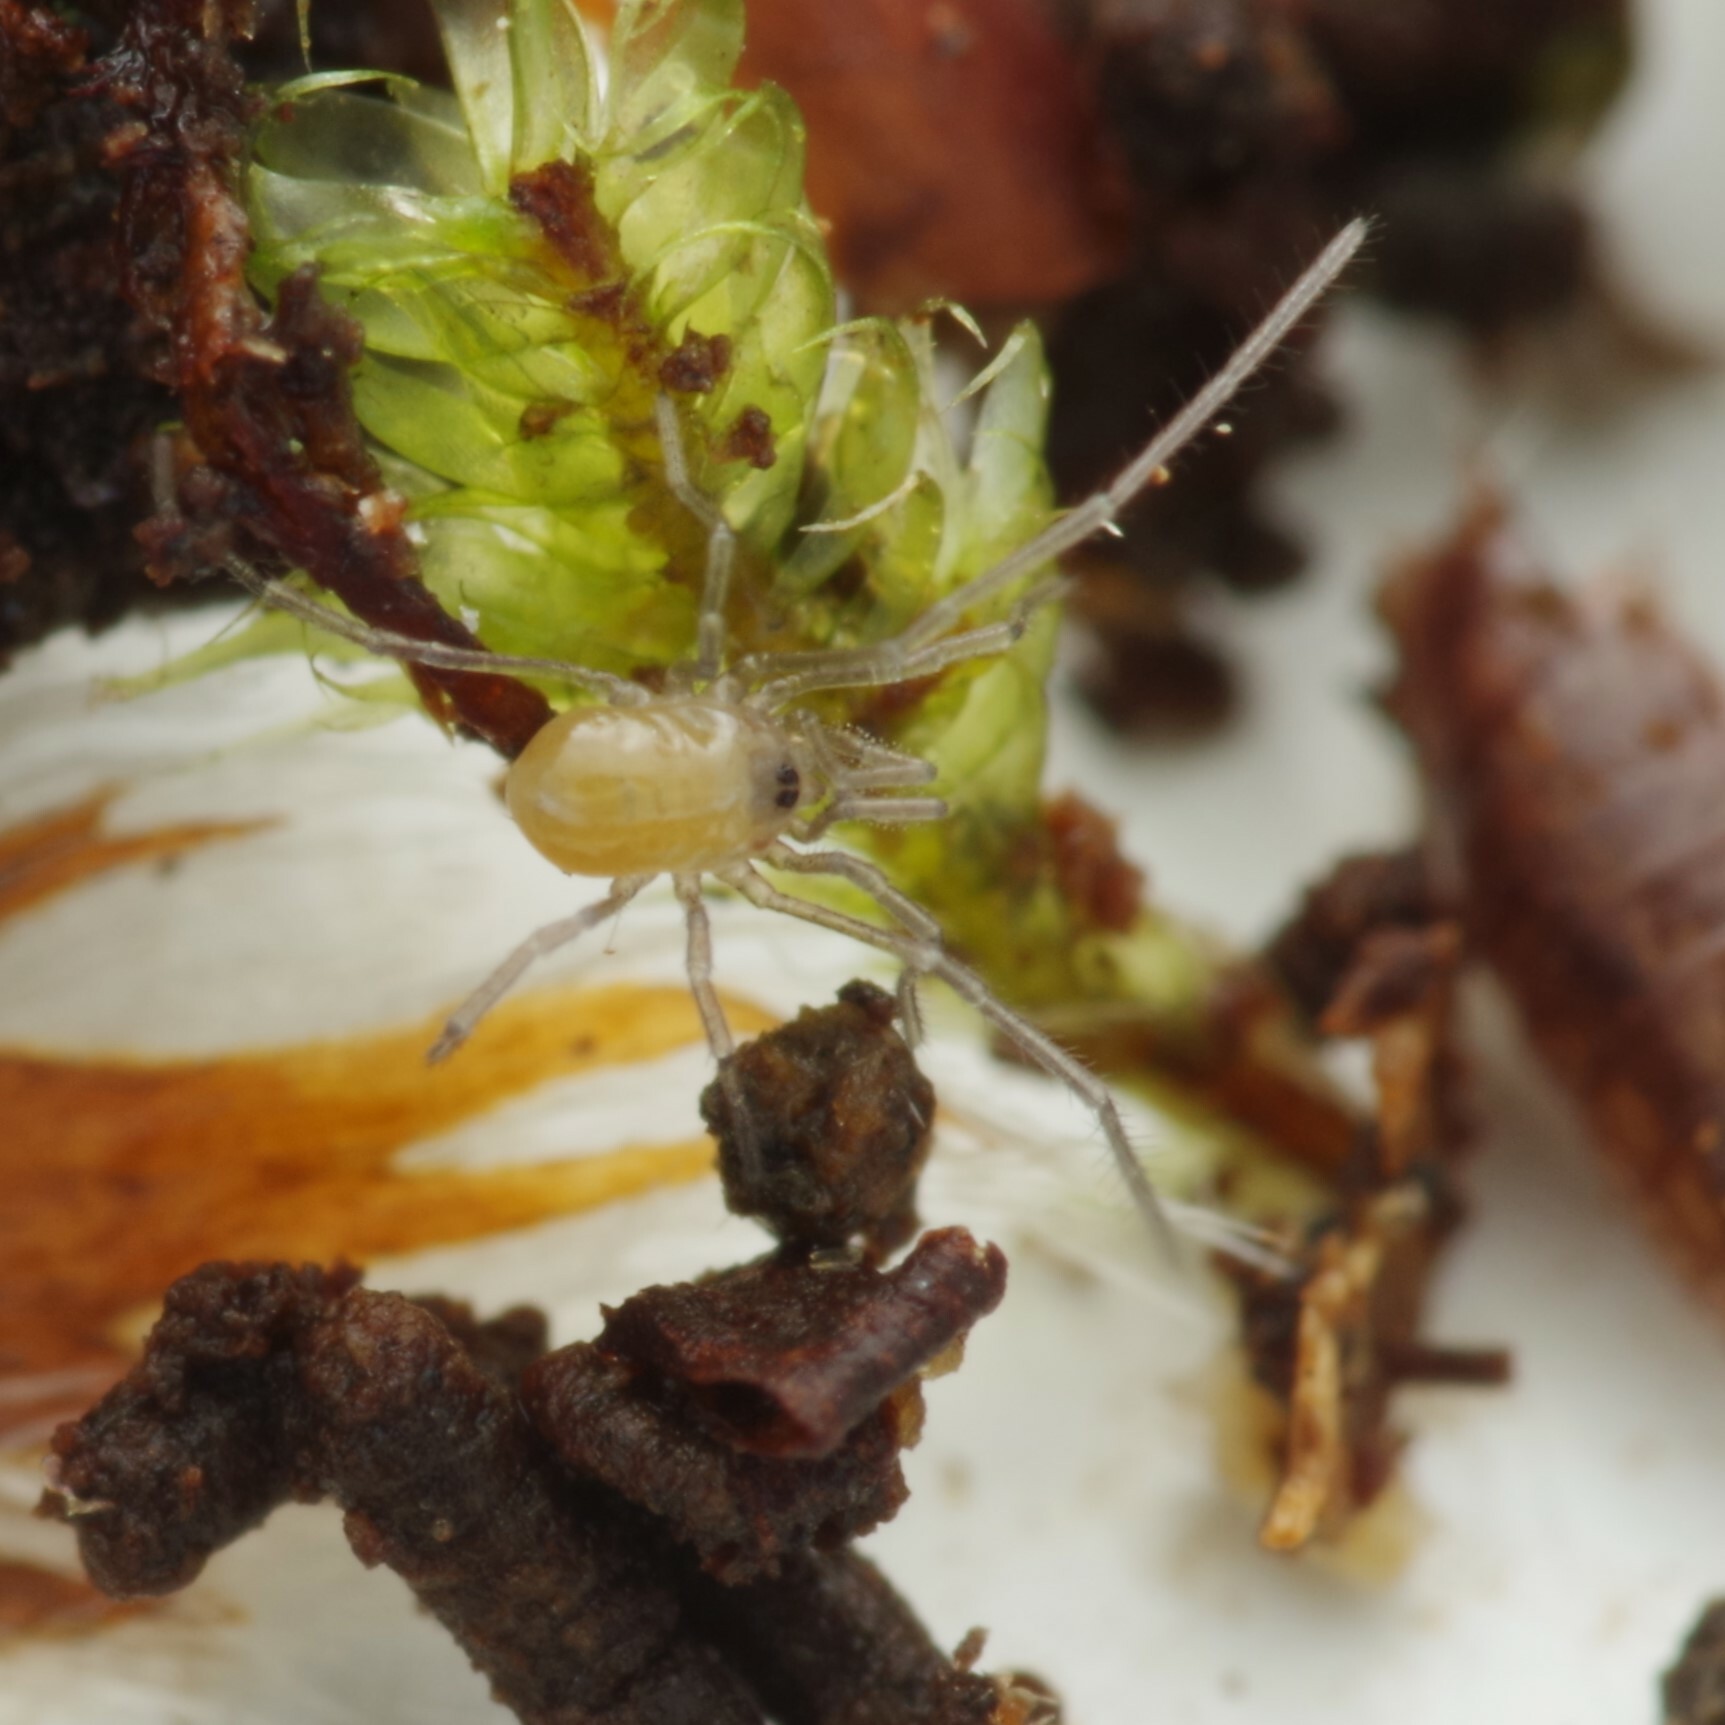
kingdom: Animalia
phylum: Arthropoda
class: Arachnida
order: Opiliones
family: Nemastomatidae
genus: Mitostoma
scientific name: Mitostoma chrysomelas
